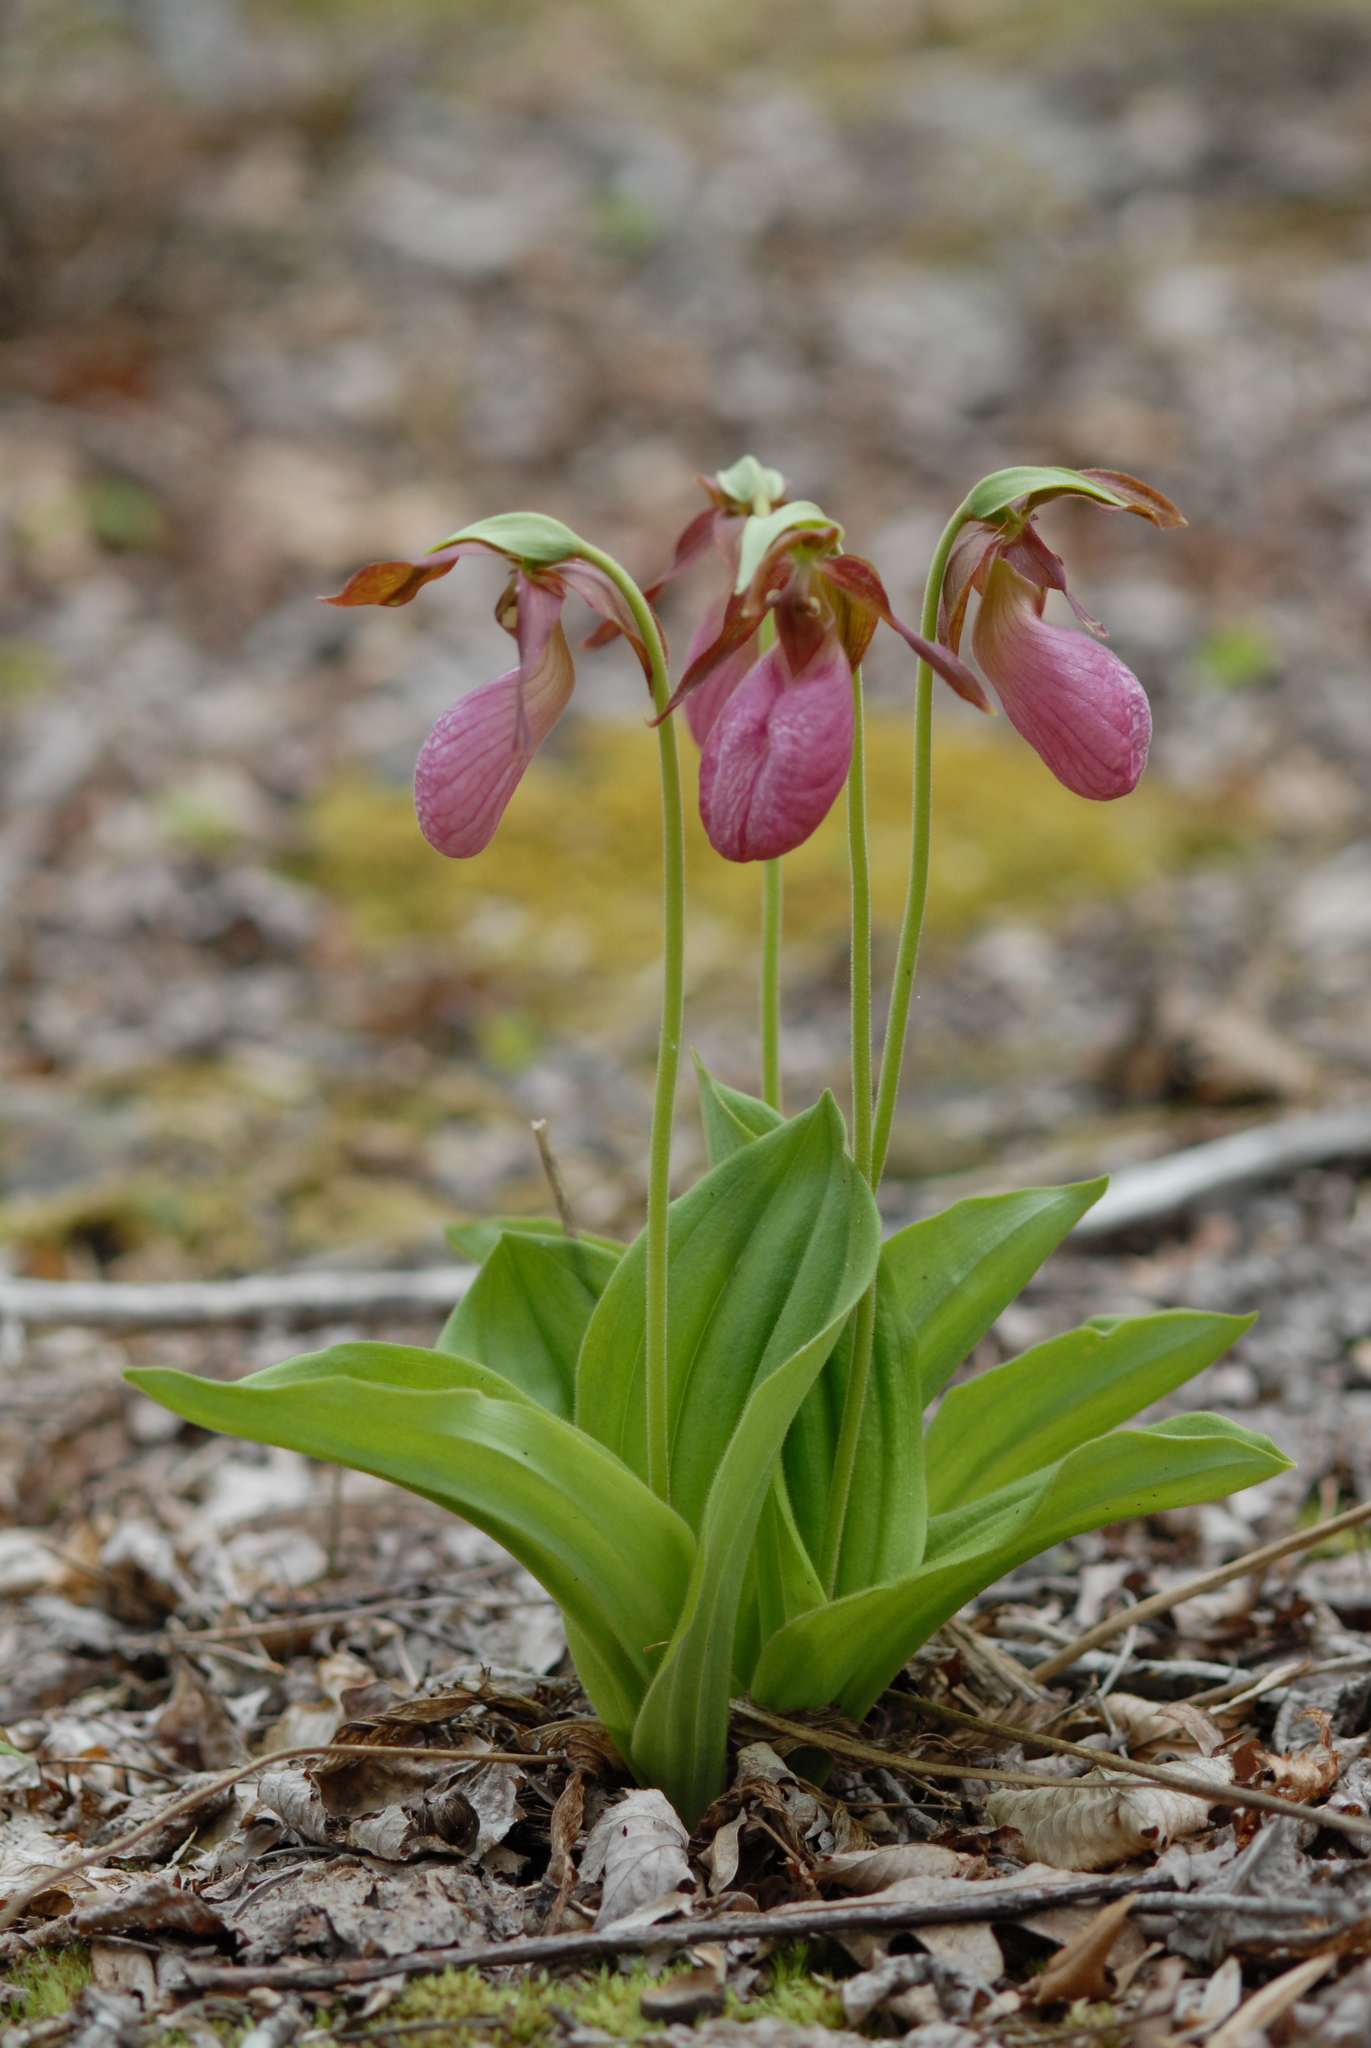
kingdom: Plantae
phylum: Tracheophyta
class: Liliopsida
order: Asparagales
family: Orchidaceae
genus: Cypripedium
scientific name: Cypripedium acaule
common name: Pink lady's-slipper
